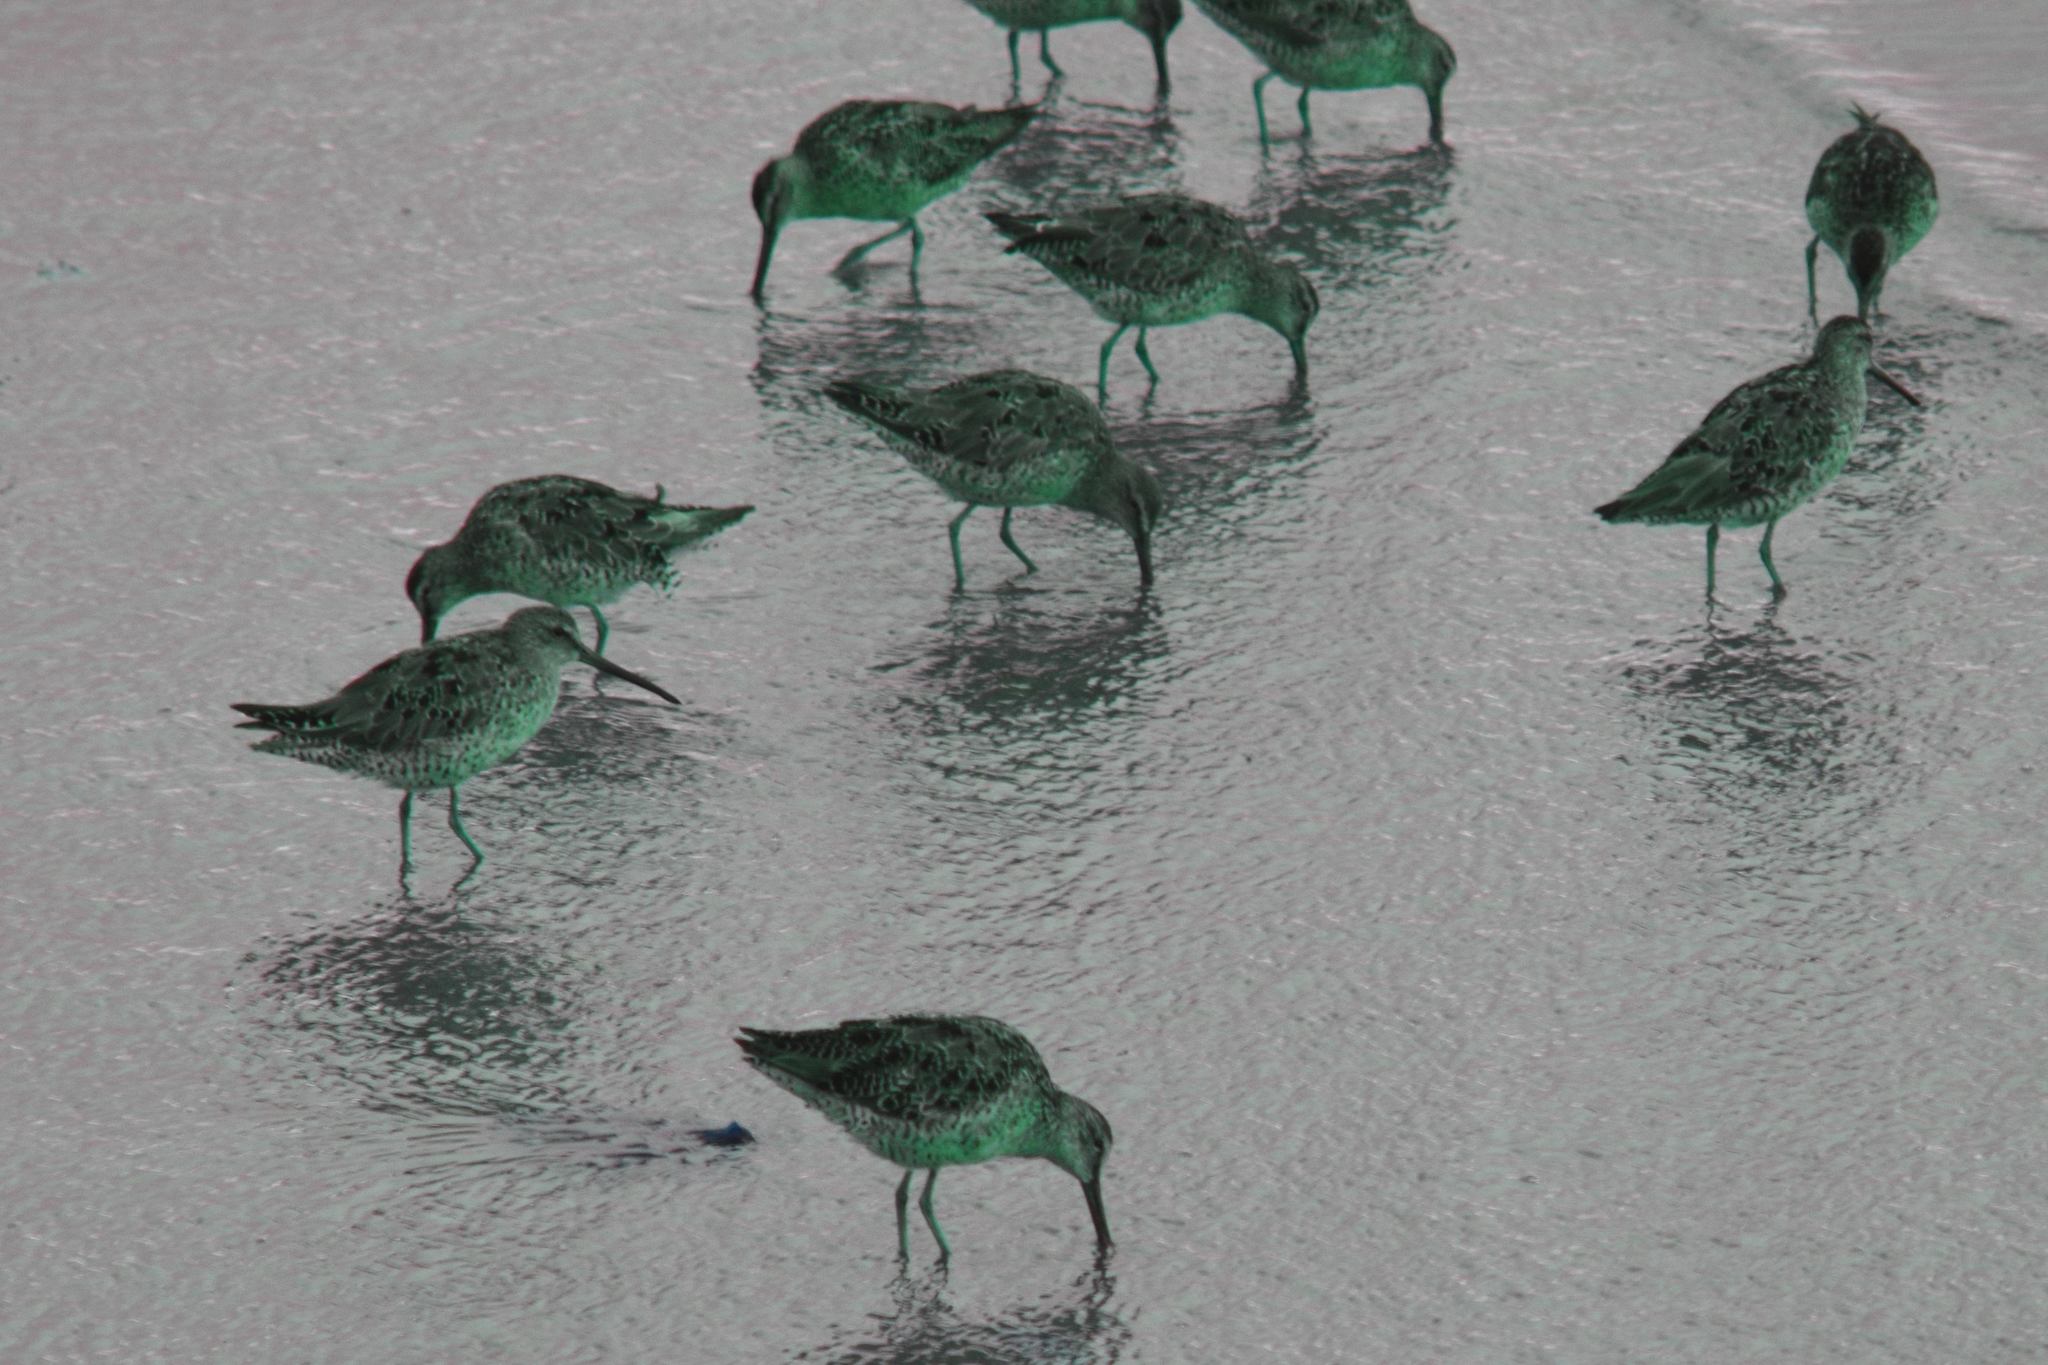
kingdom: Animalia
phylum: Chordata
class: Aves
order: Charadriiformes
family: Scolopacidae
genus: Limnodromus
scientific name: Limnodromus griseus
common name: Short-billed dowitcher
